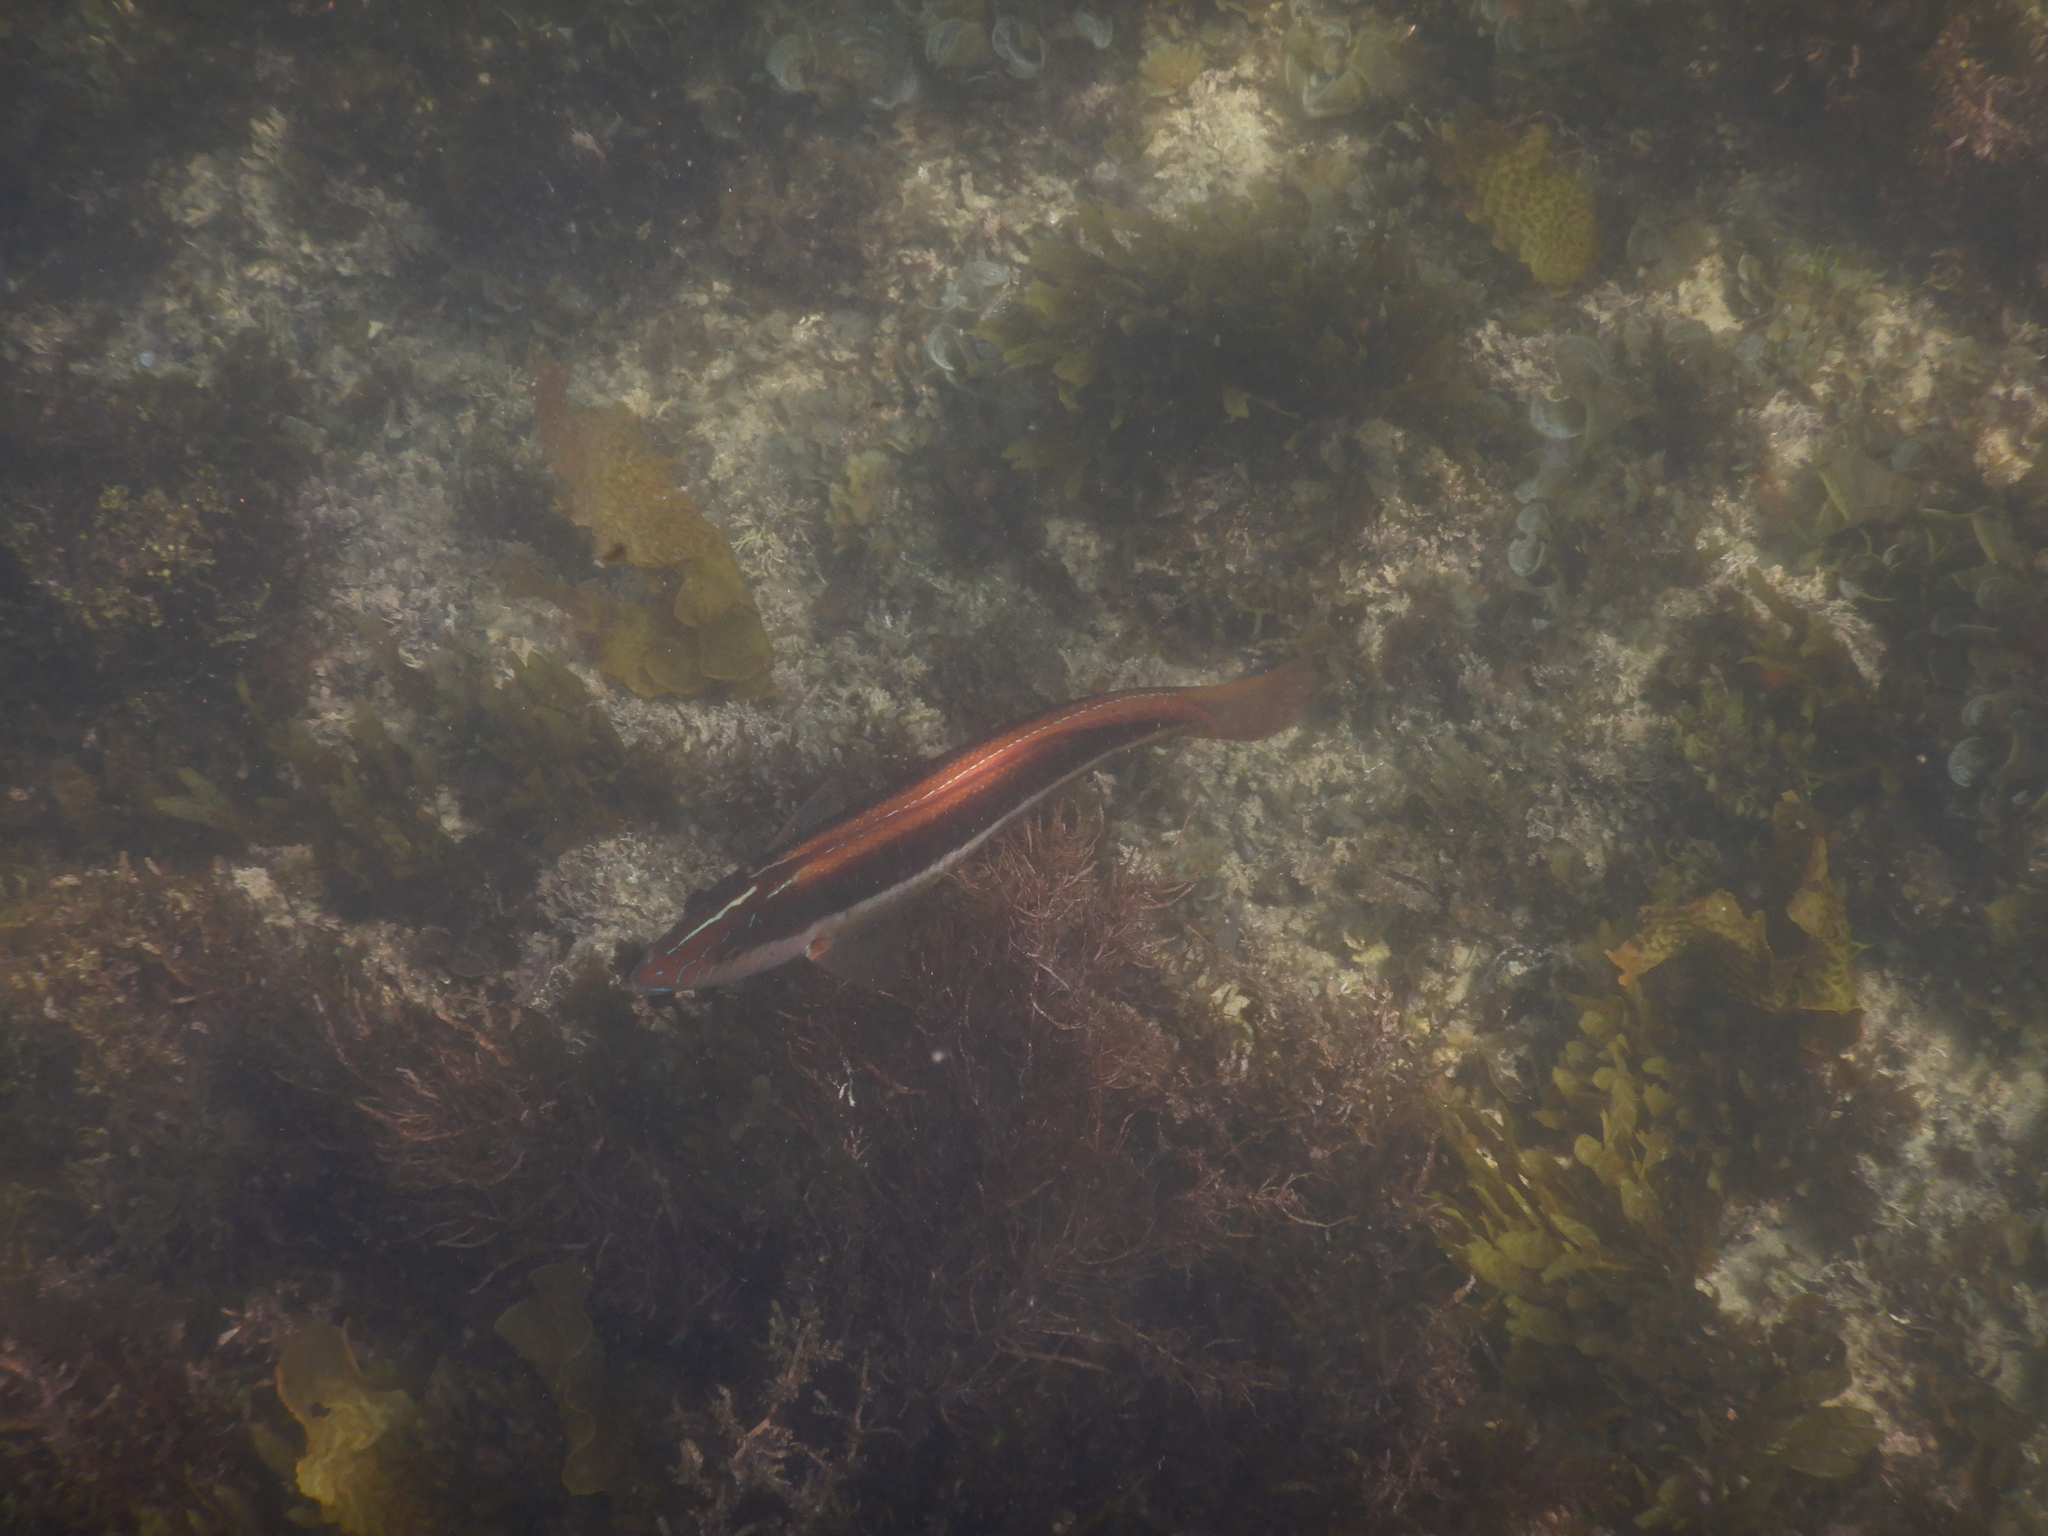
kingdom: Animalia
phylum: Chordata
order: Perciformes
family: Labridae
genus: Ophthalmolepis
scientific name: Ophthalmolepis lineolata
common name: Maori wrasse
